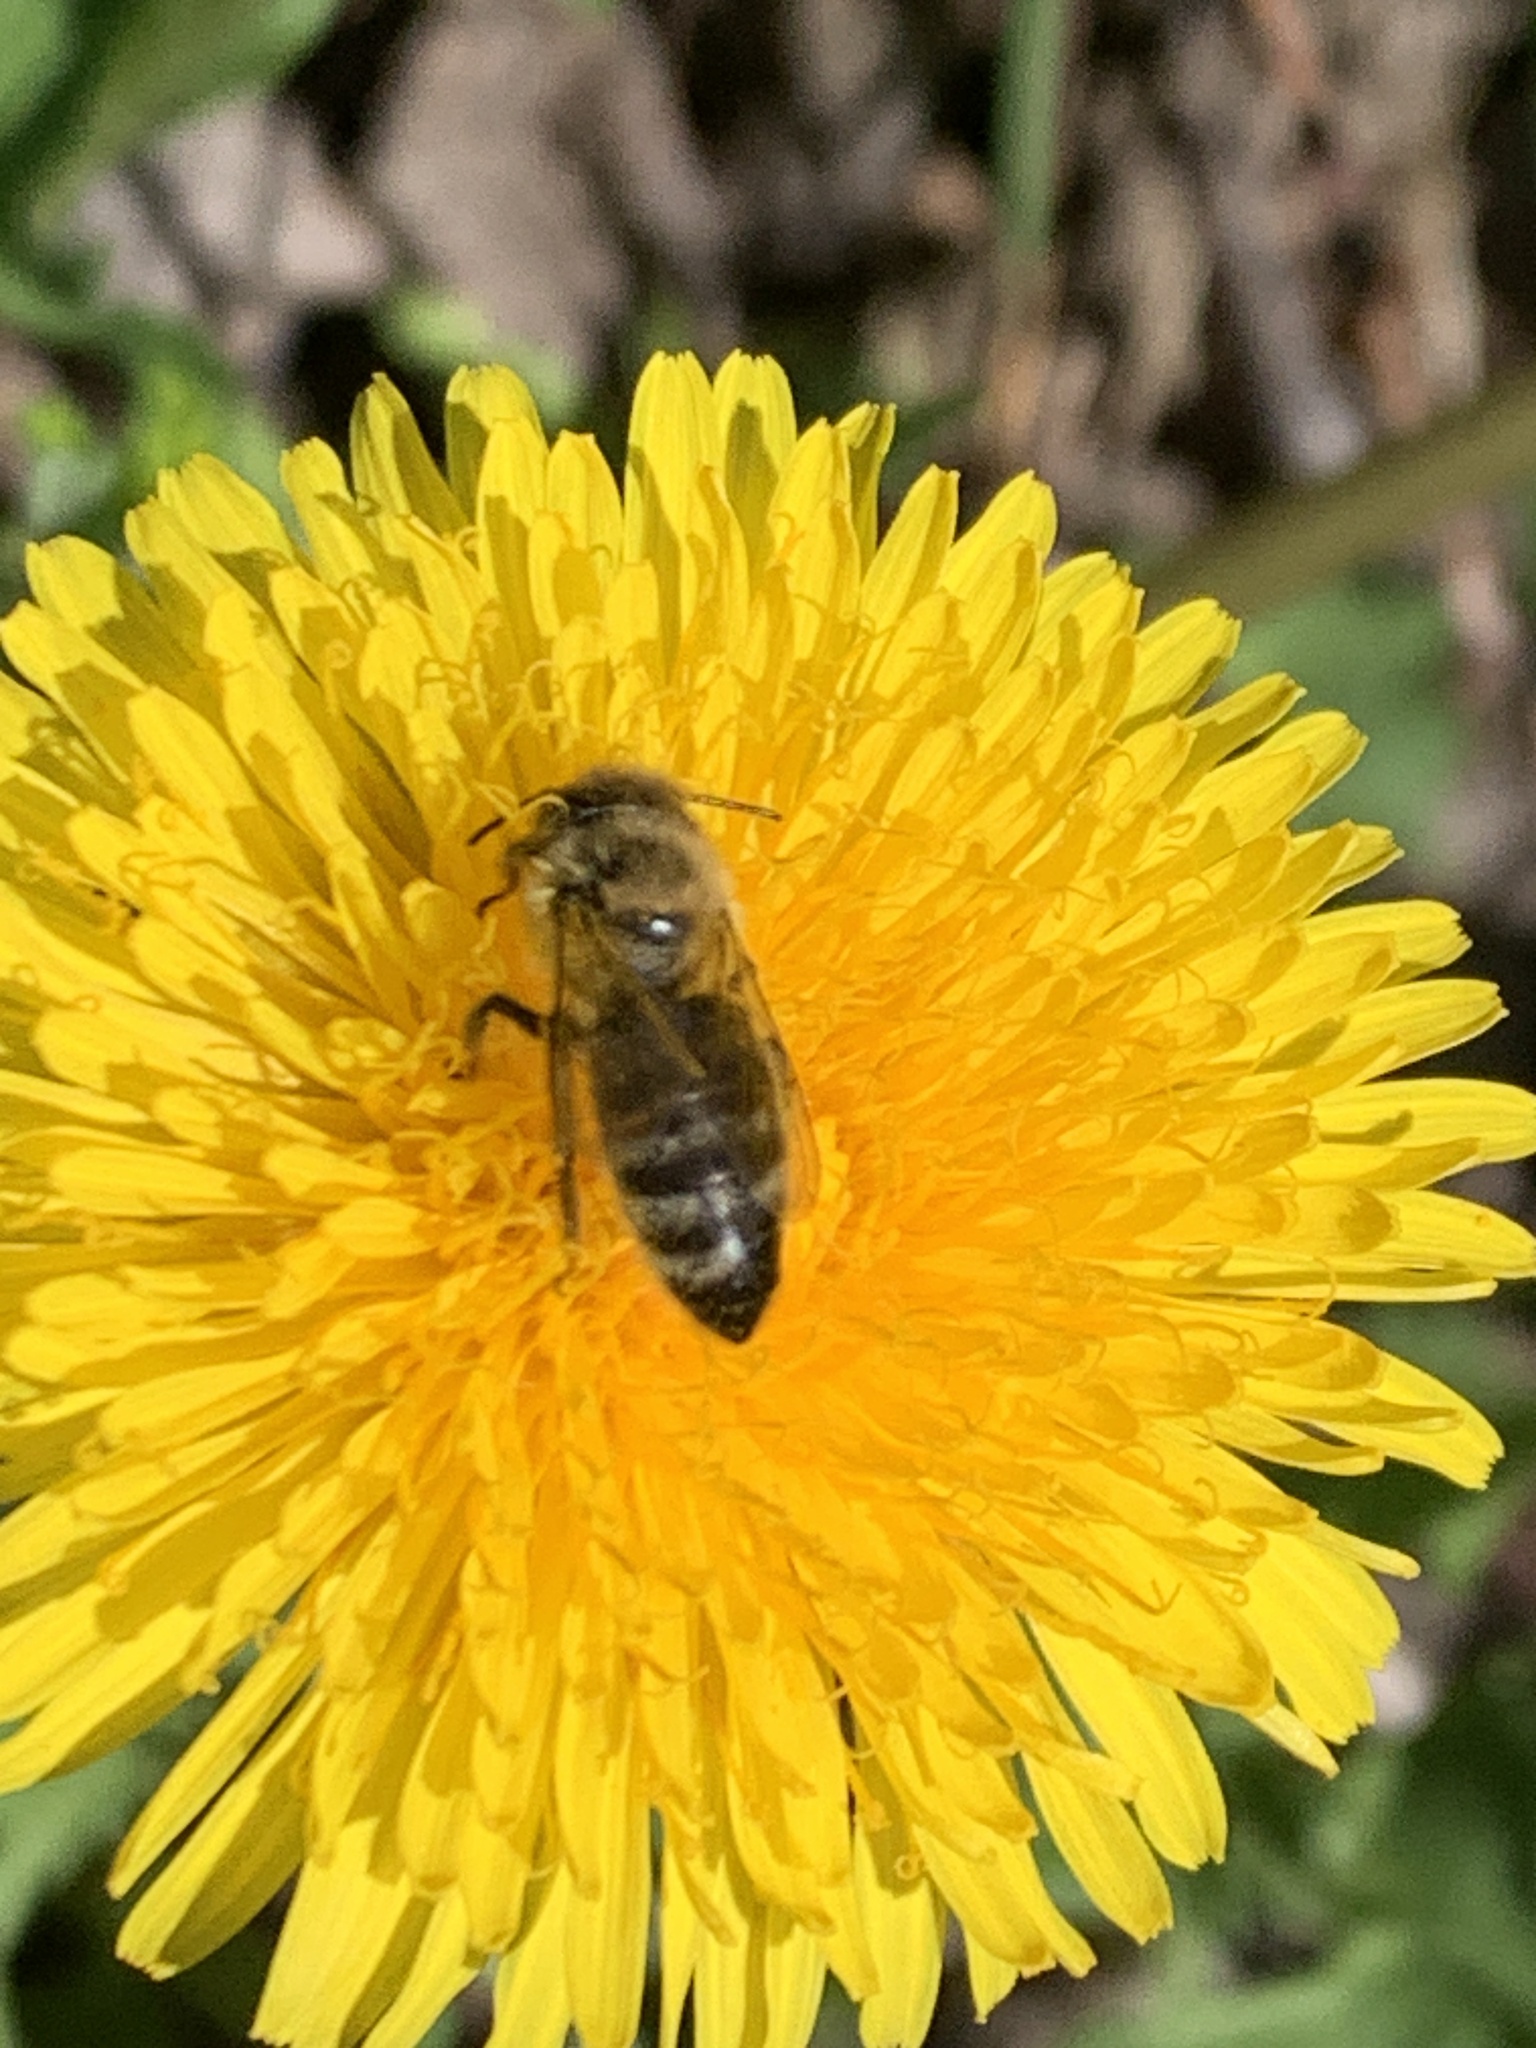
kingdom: Animalia
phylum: Arthropoda
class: Insecta
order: Hymenoptera
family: Apidae
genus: Apis
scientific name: Apis mellifera
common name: Honey bee
